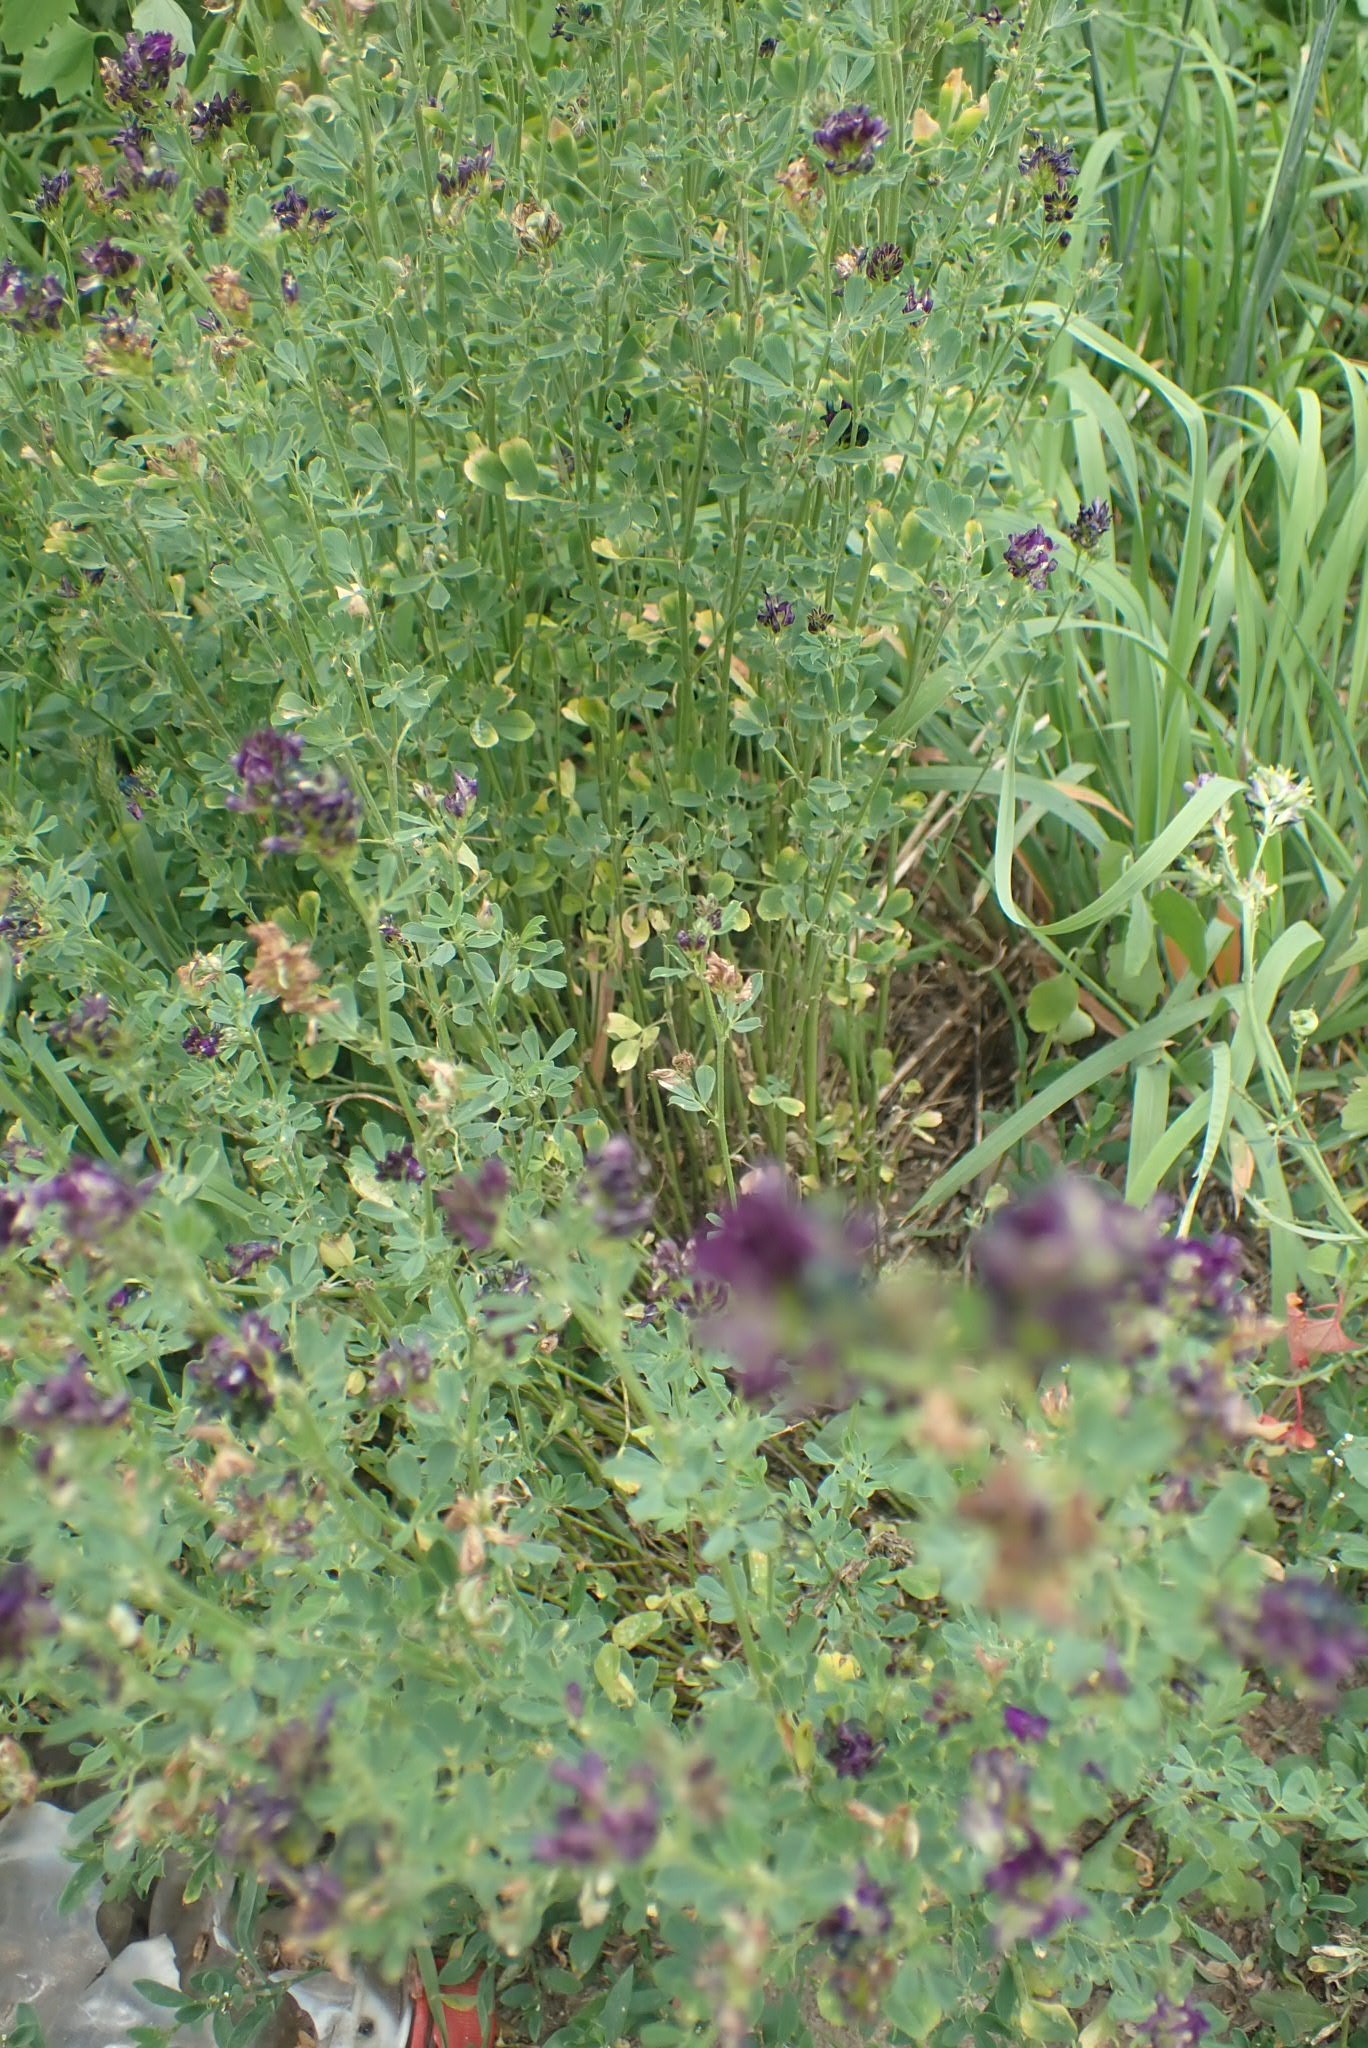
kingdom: Plantae
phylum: Tracheophyta
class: Magnoliopsida
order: Fabales
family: Fabaceae
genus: Medicago
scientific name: Medicago varia
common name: Sand lucerne
